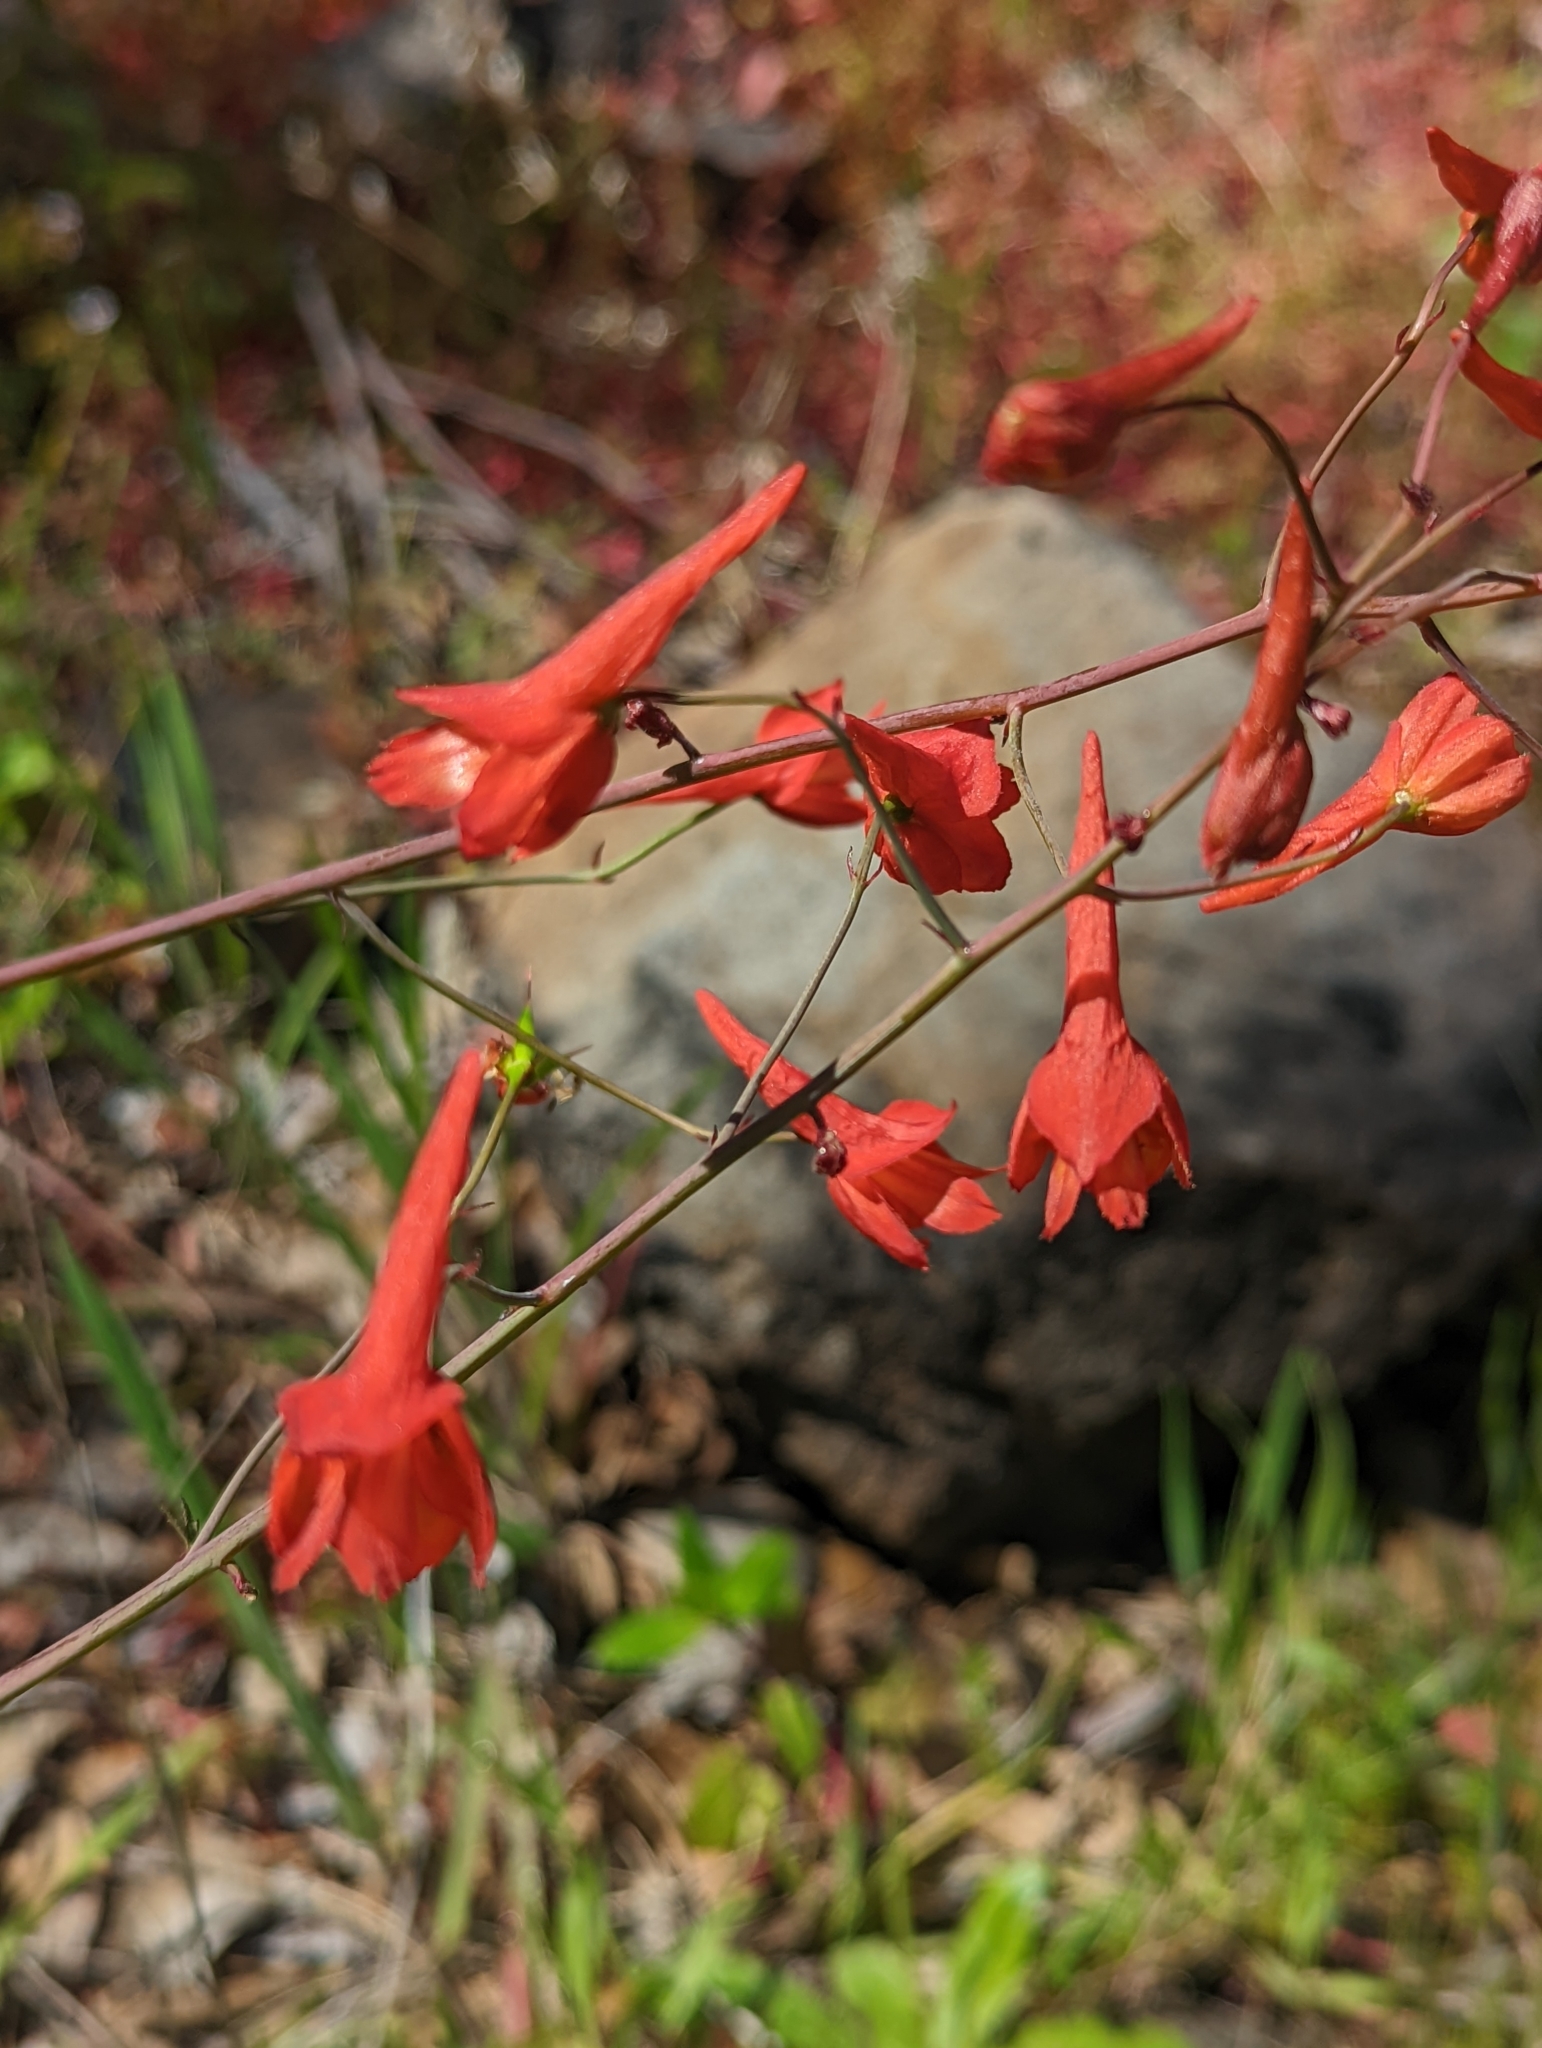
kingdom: Plantae
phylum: Tracheophyta
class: Magnoliopsida
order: Ranunculales
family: Ranunculaceae
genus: Delphinium
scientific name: Delphinium nudicaule
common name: Red larkspur
